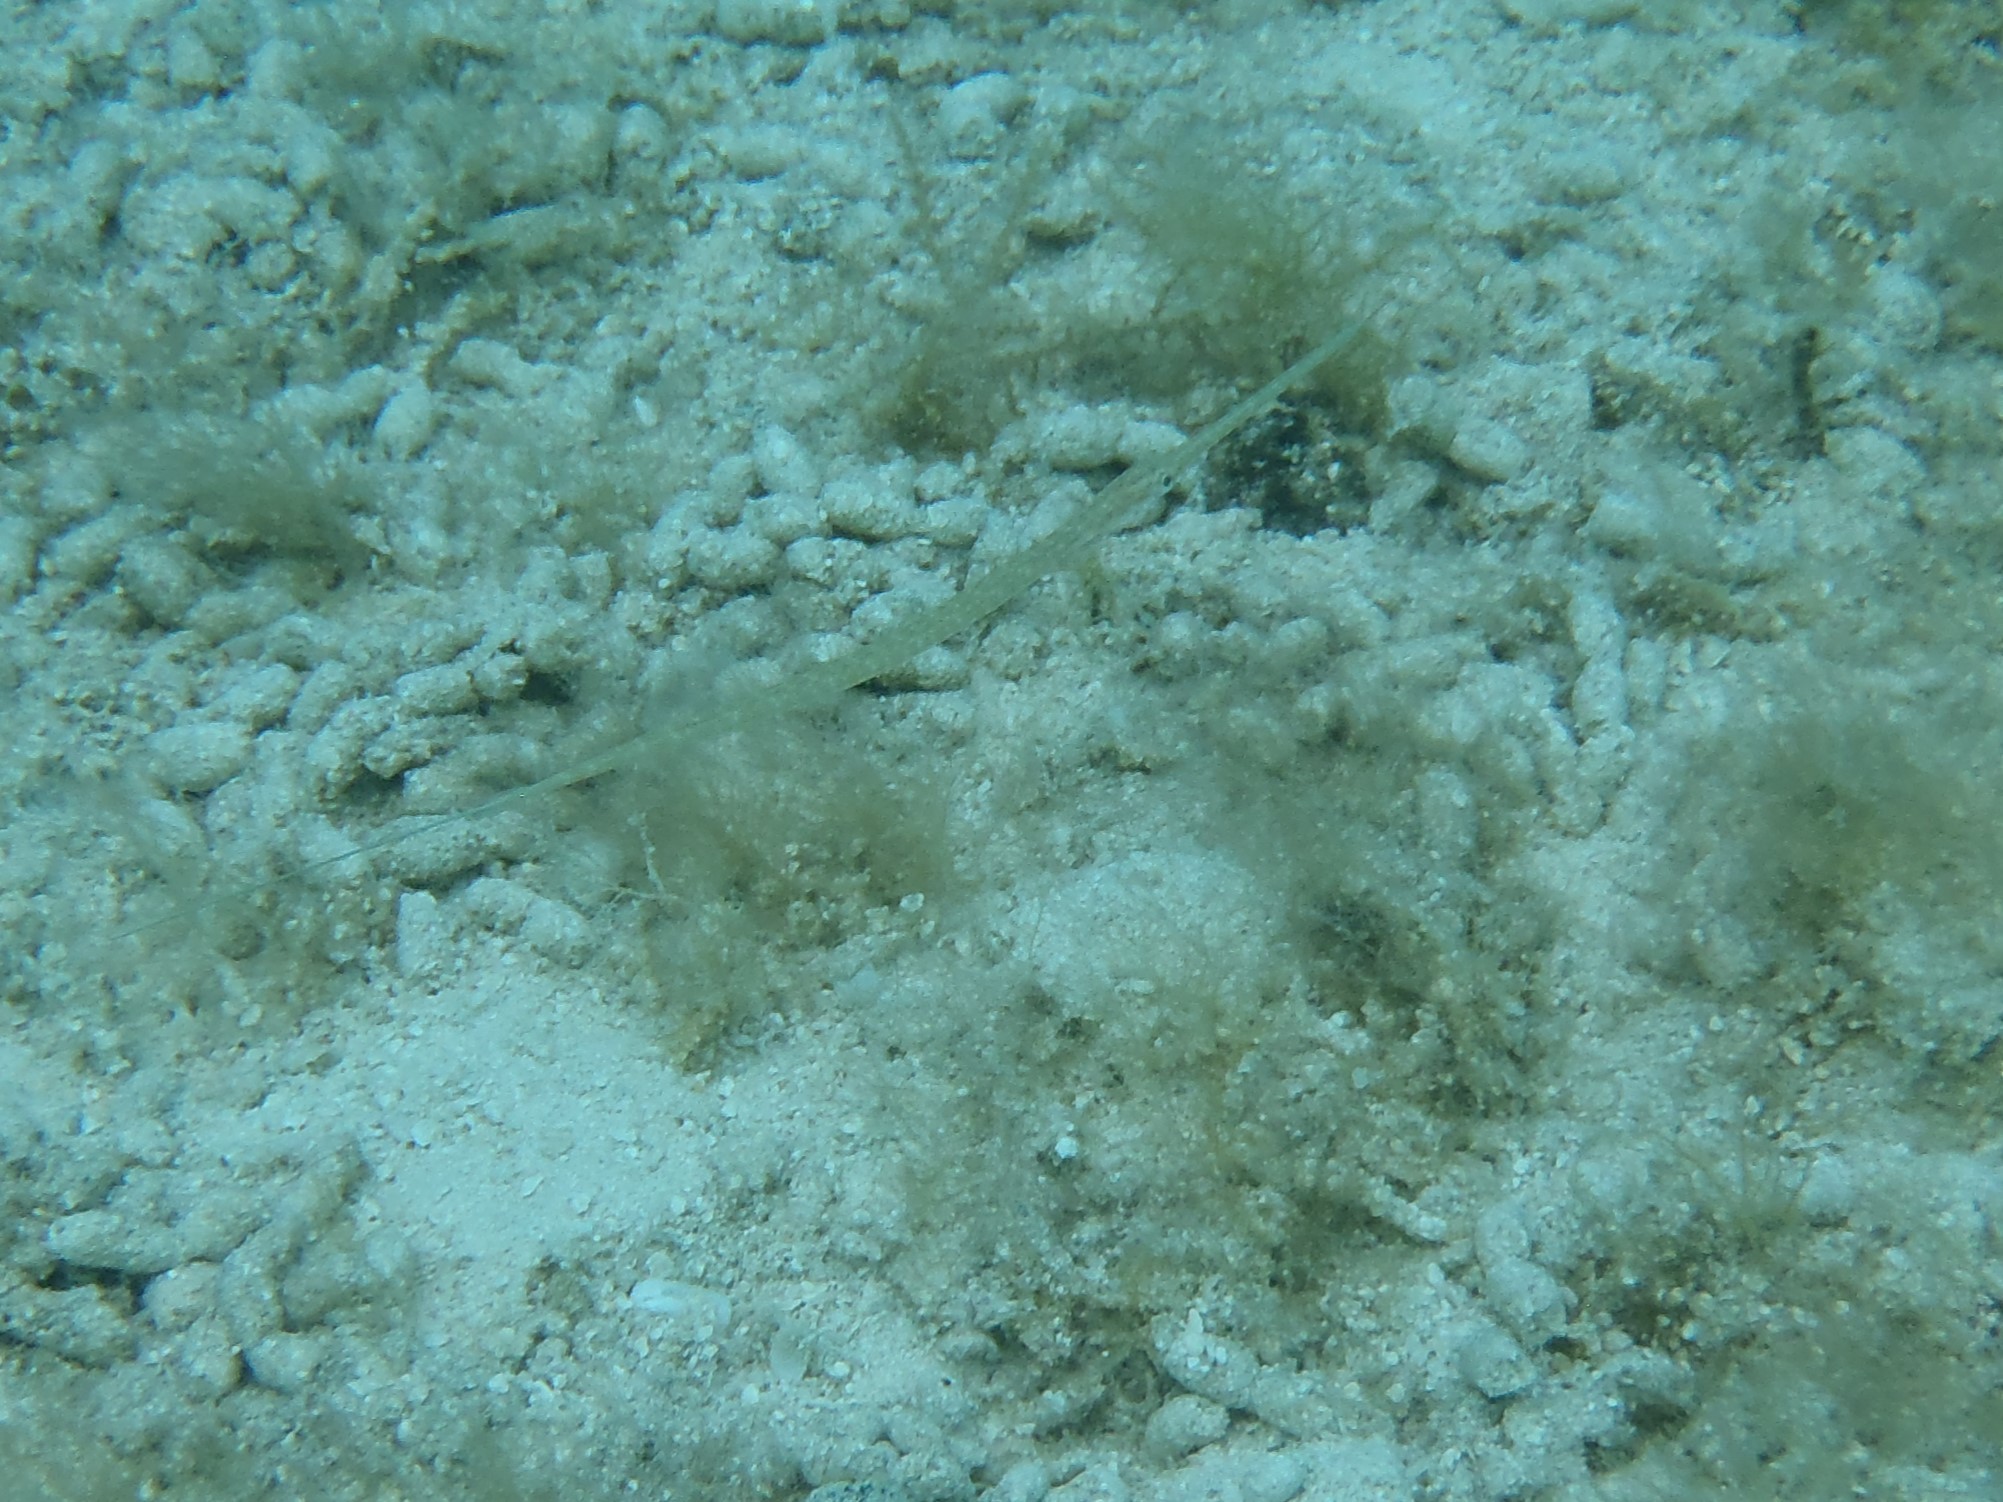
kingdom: Animalia
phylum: Chordata
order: Syngnathiformes
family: Fistulariidae
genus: Fistularia
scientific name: Fistularia commersonii
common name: Bluespotted cornetfish
